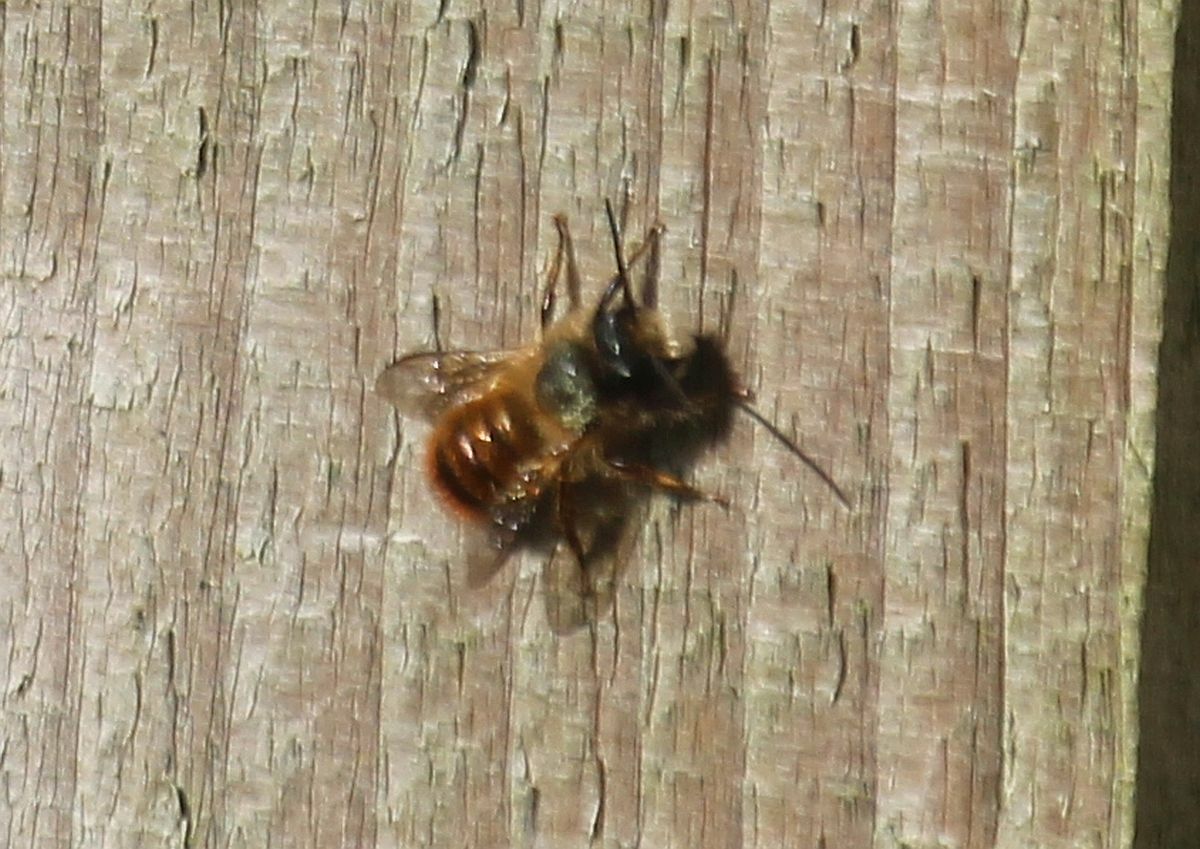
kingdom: Animalia
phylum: Arthropoda
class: Insecta
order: Hymenoptera
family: Megachilidae
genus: Osmia
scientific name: Osmia bicornis
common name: Red mason bee
